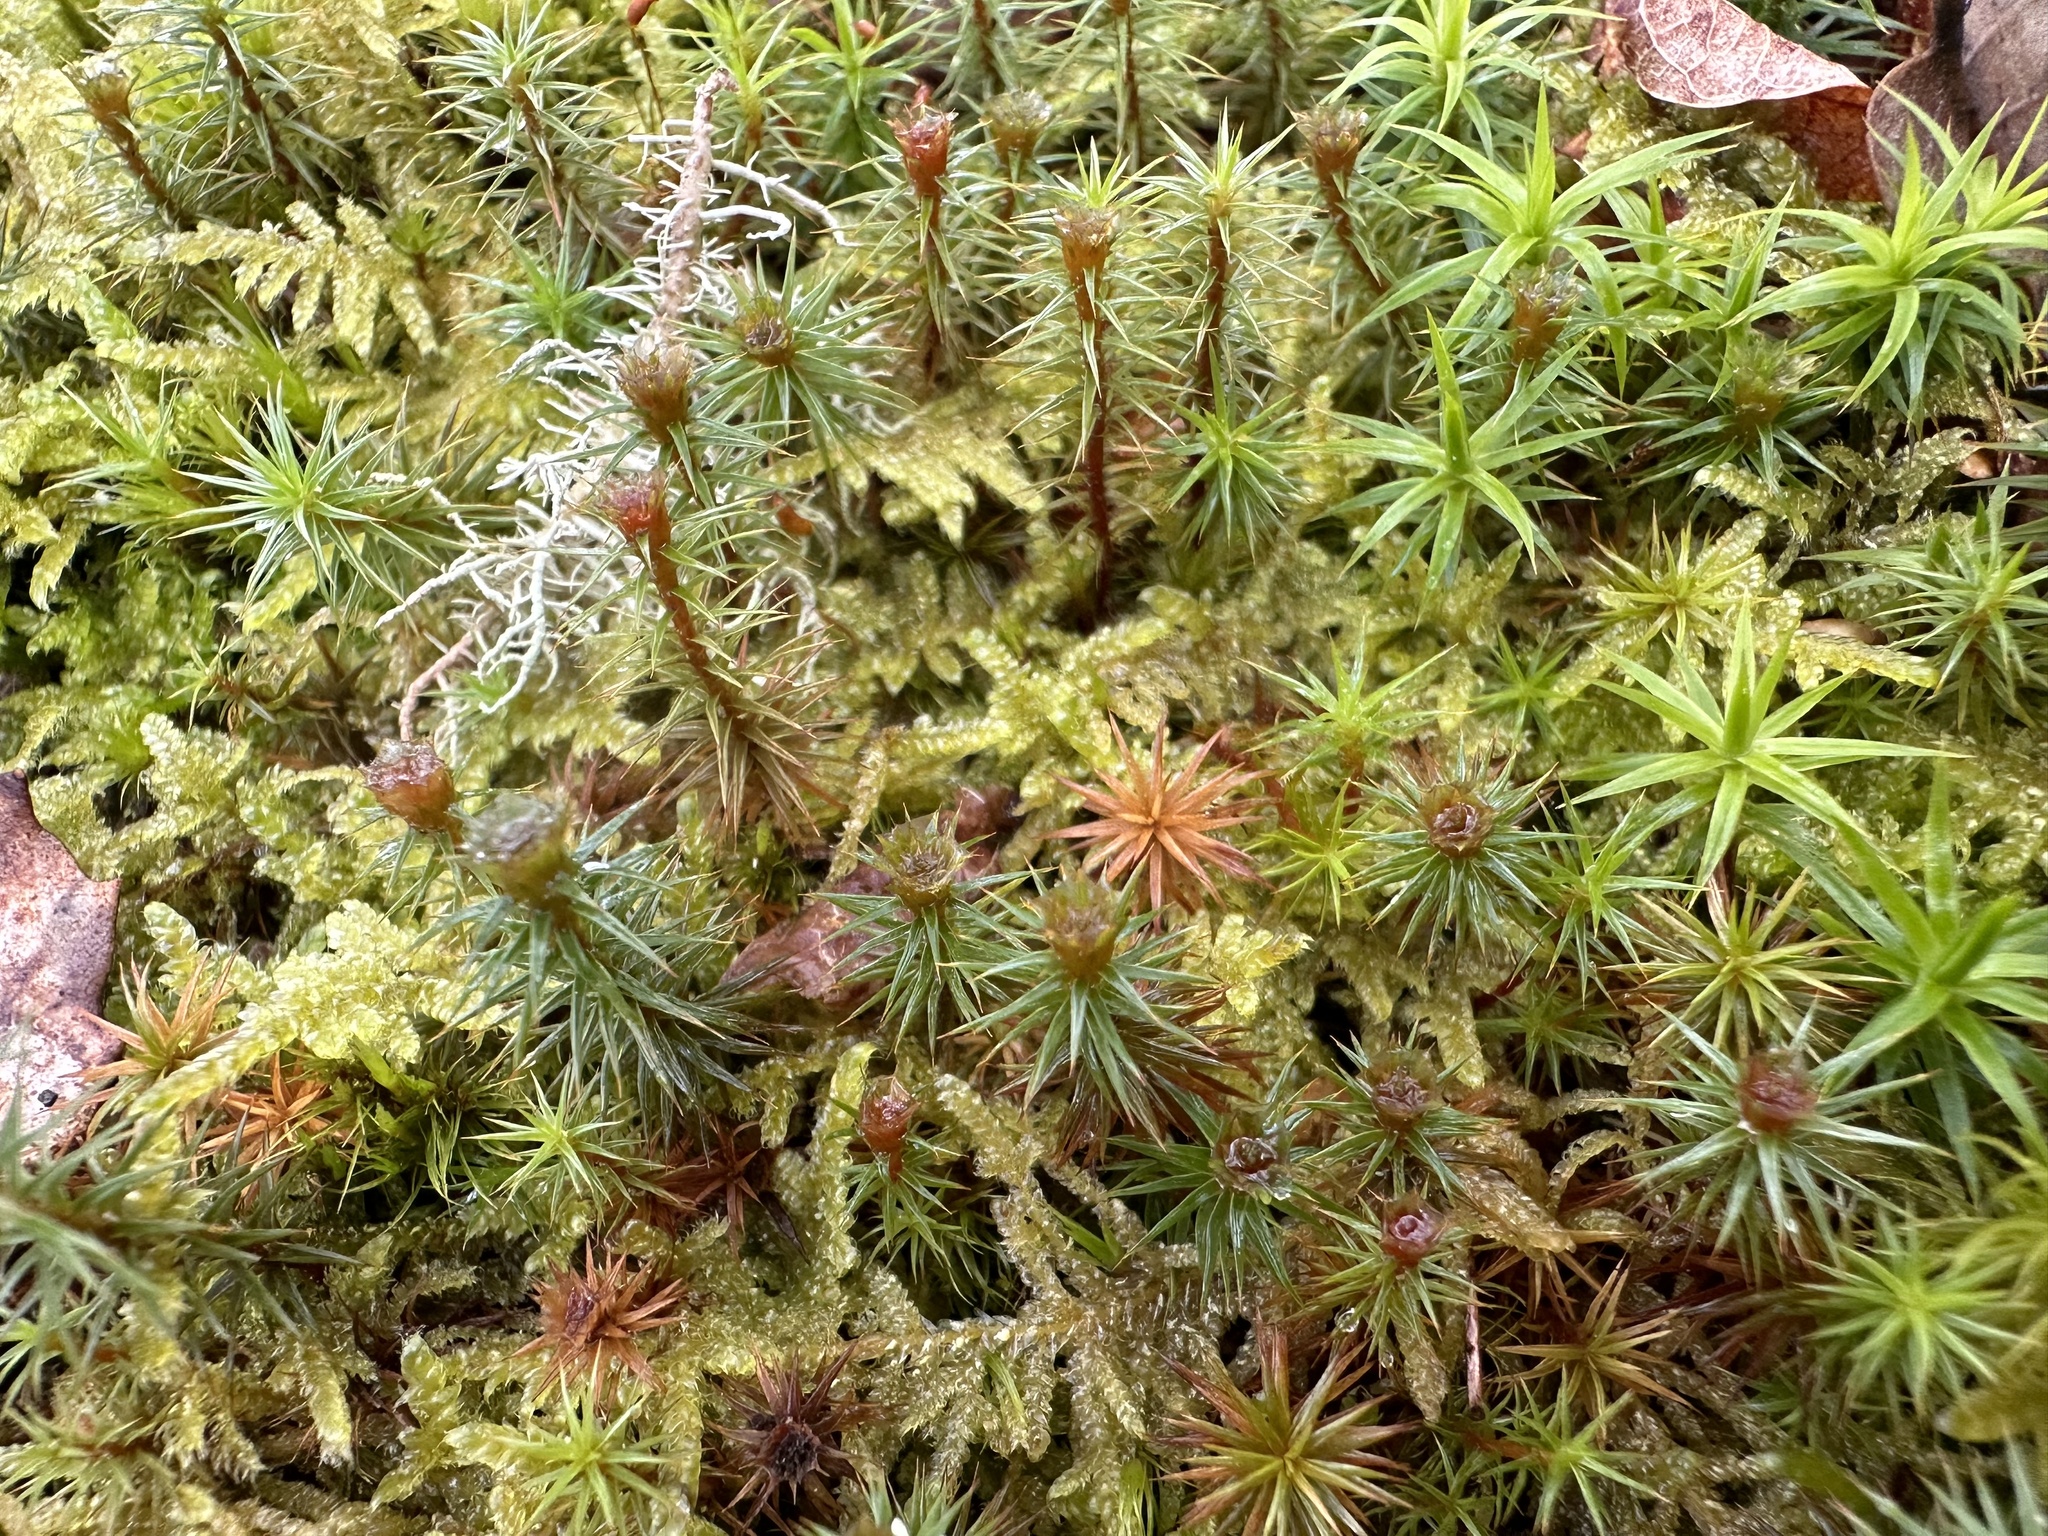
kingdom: Plantae
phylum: Bryophyta
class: Polytrichopsida
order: Polytrichales
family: Polytrichaceae
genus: Polytrichum
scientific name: Polytrichum juniperinum
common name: Juniper haircap moss
